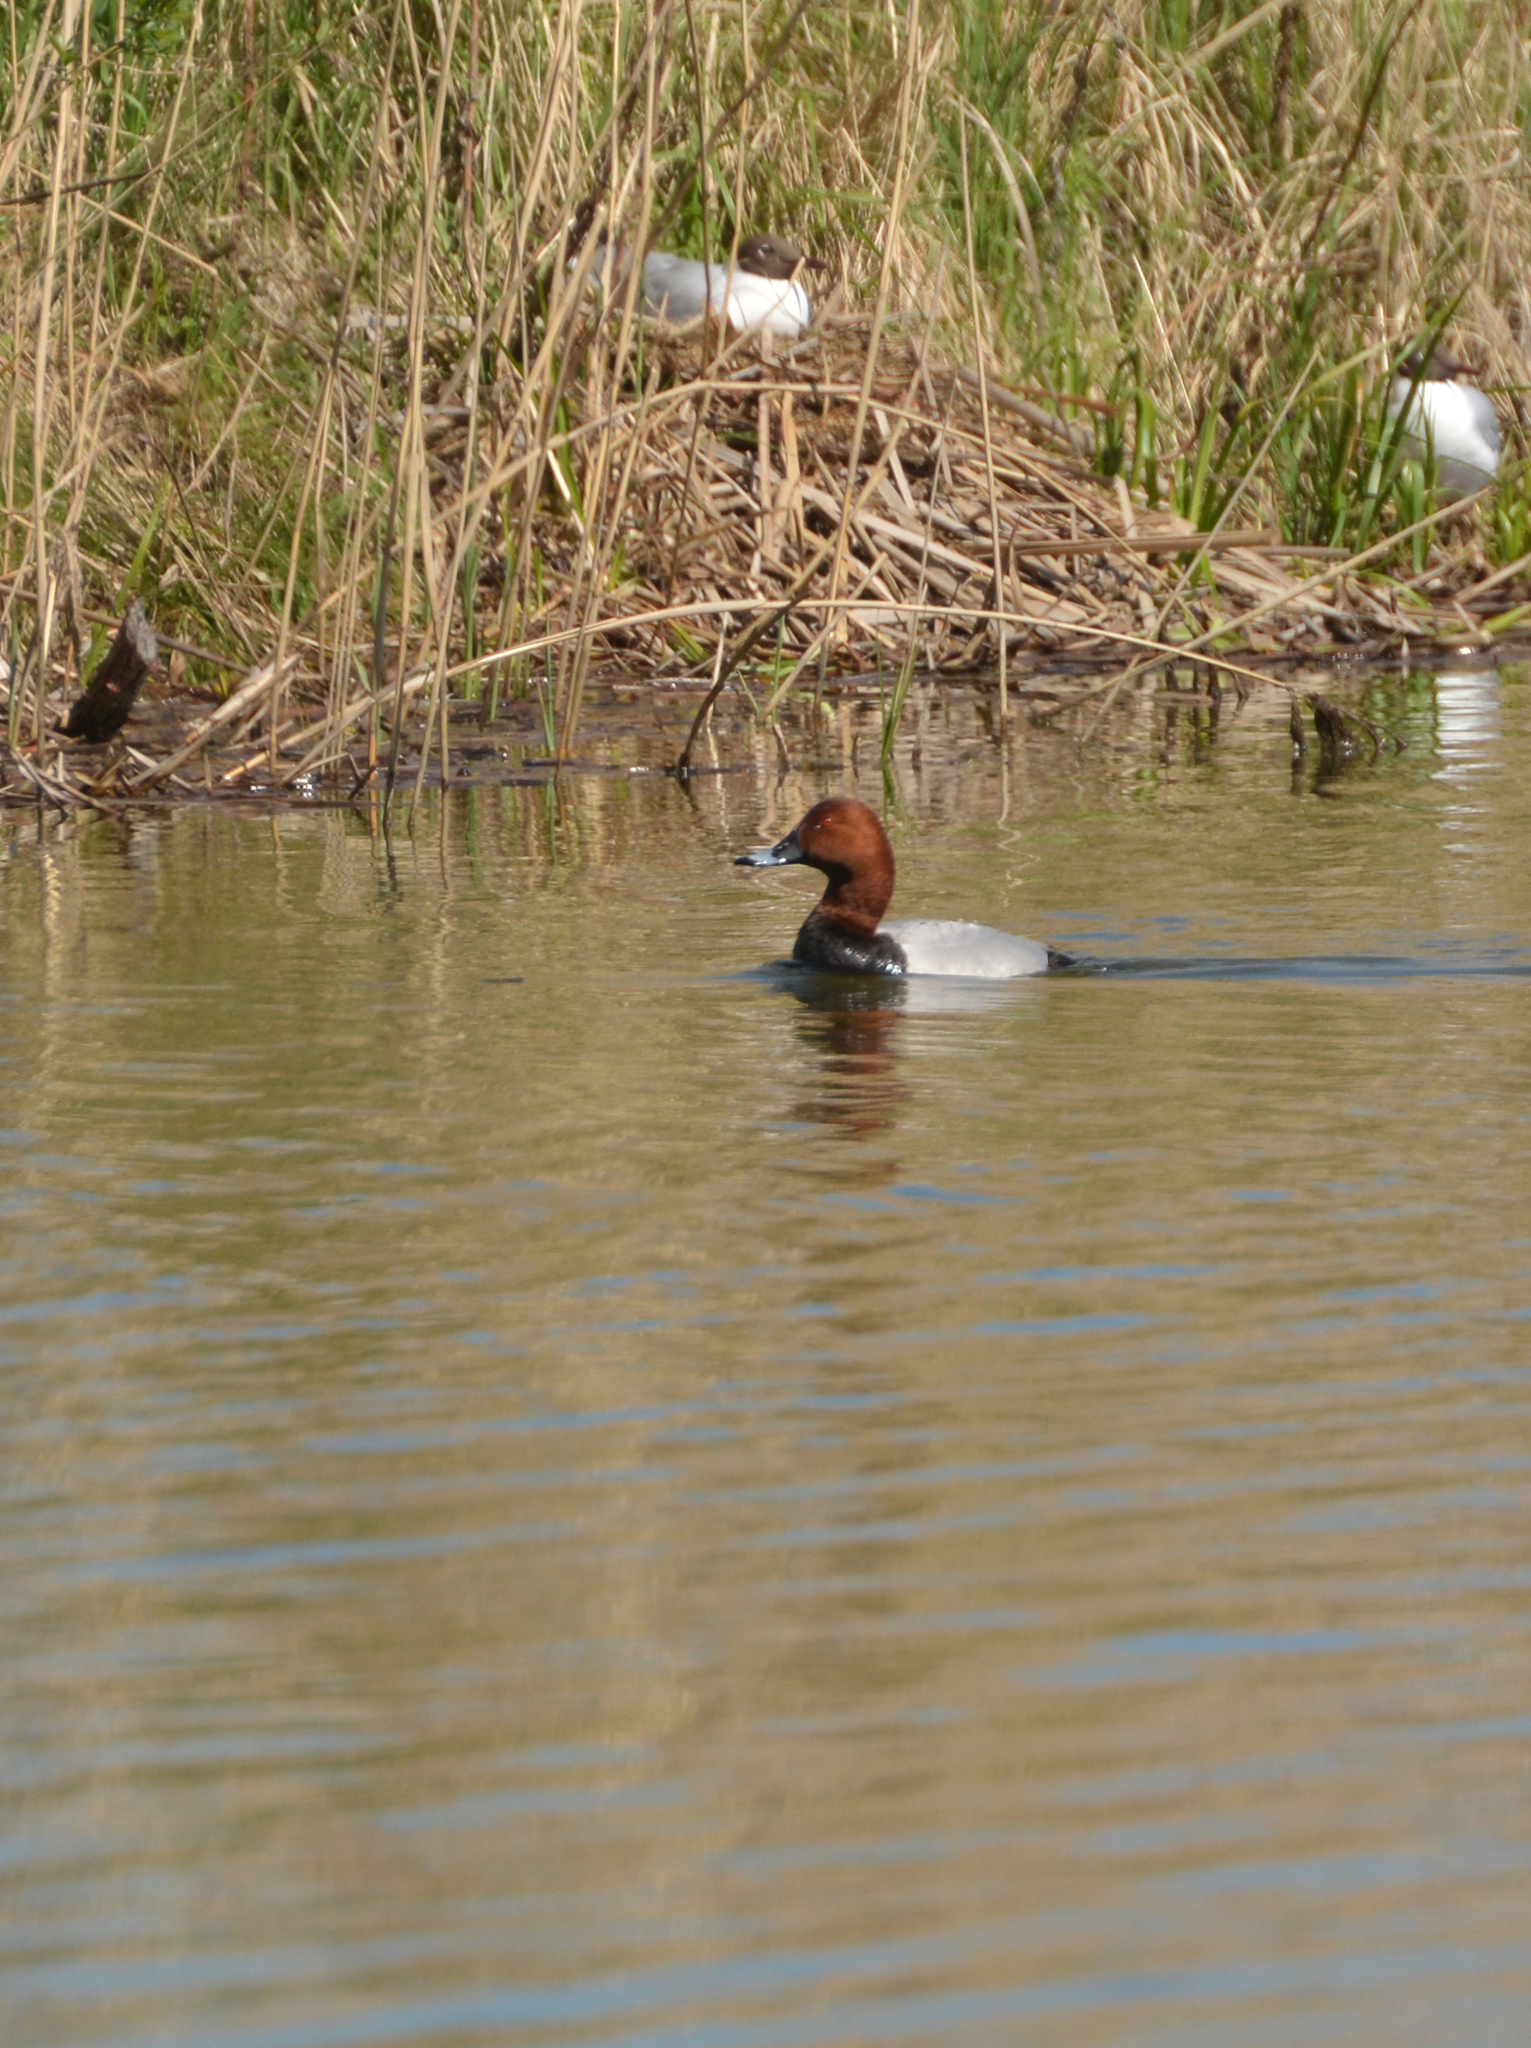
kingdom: Animalia
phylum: Chordata
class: Aves
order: Anseriformes
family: Anatidae
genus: Aythya
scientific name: Aythya ferina
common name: Common pochard
